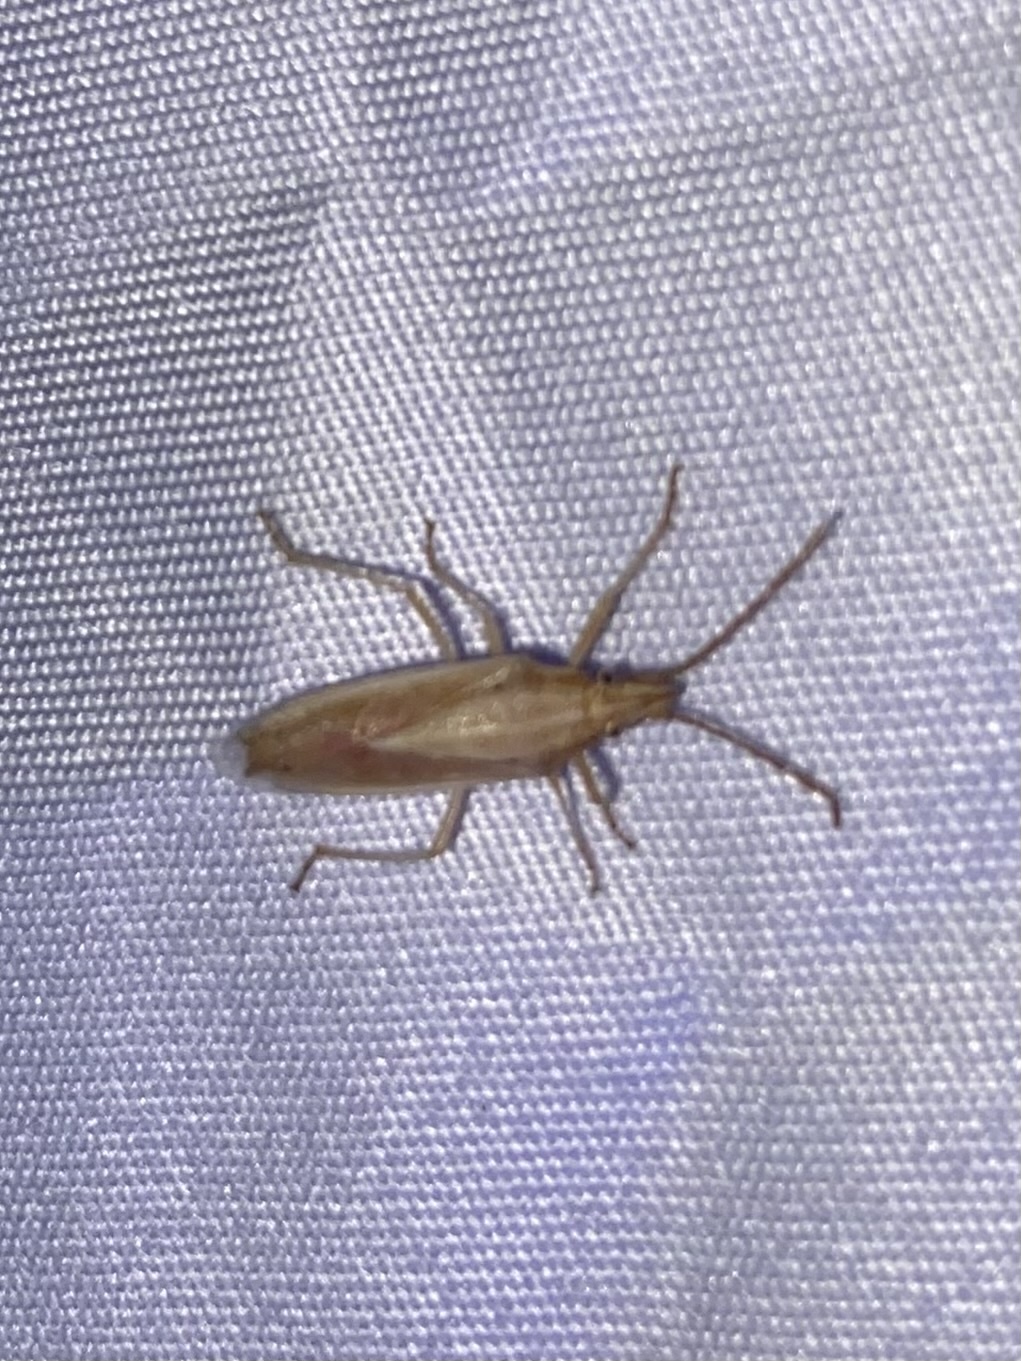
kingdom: Animalia
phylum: Arthropoda
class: Insecta
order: Hemiptera
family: Pentatomidae
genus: Mecidea
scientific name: Mecidea
